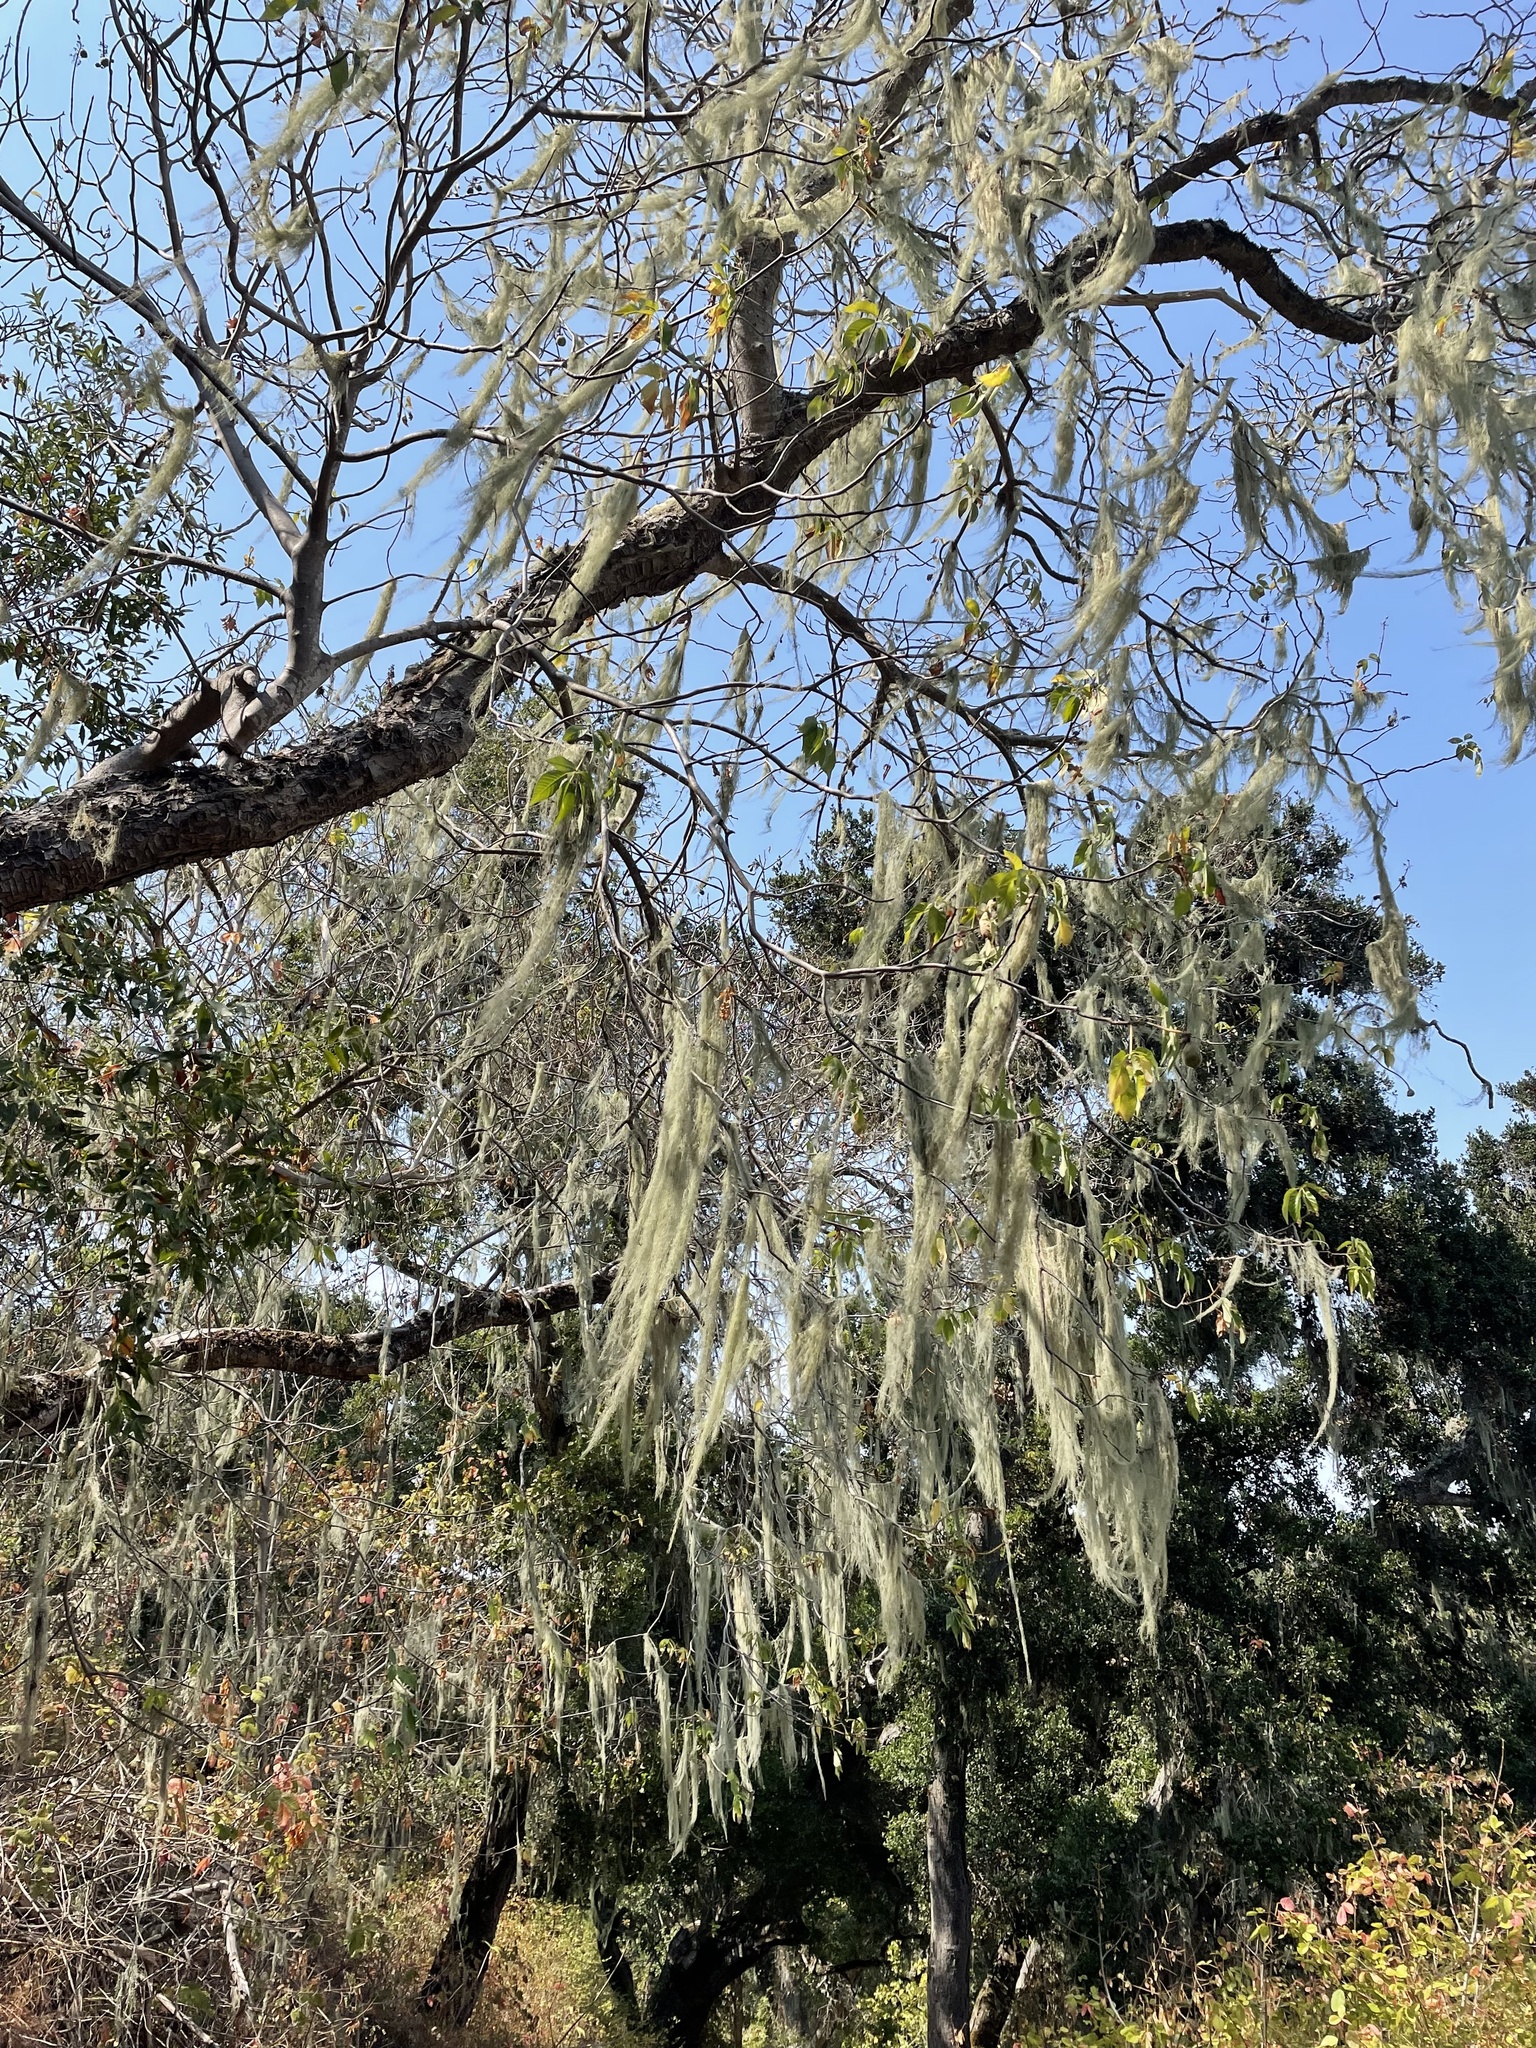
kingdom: Fungi
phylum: Ascomycota
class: Lecanoromycetes
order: Lecanorales
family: Ramalinaceae
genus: Ramalina
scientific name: Ramalina menziesii
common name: Lace lichen
